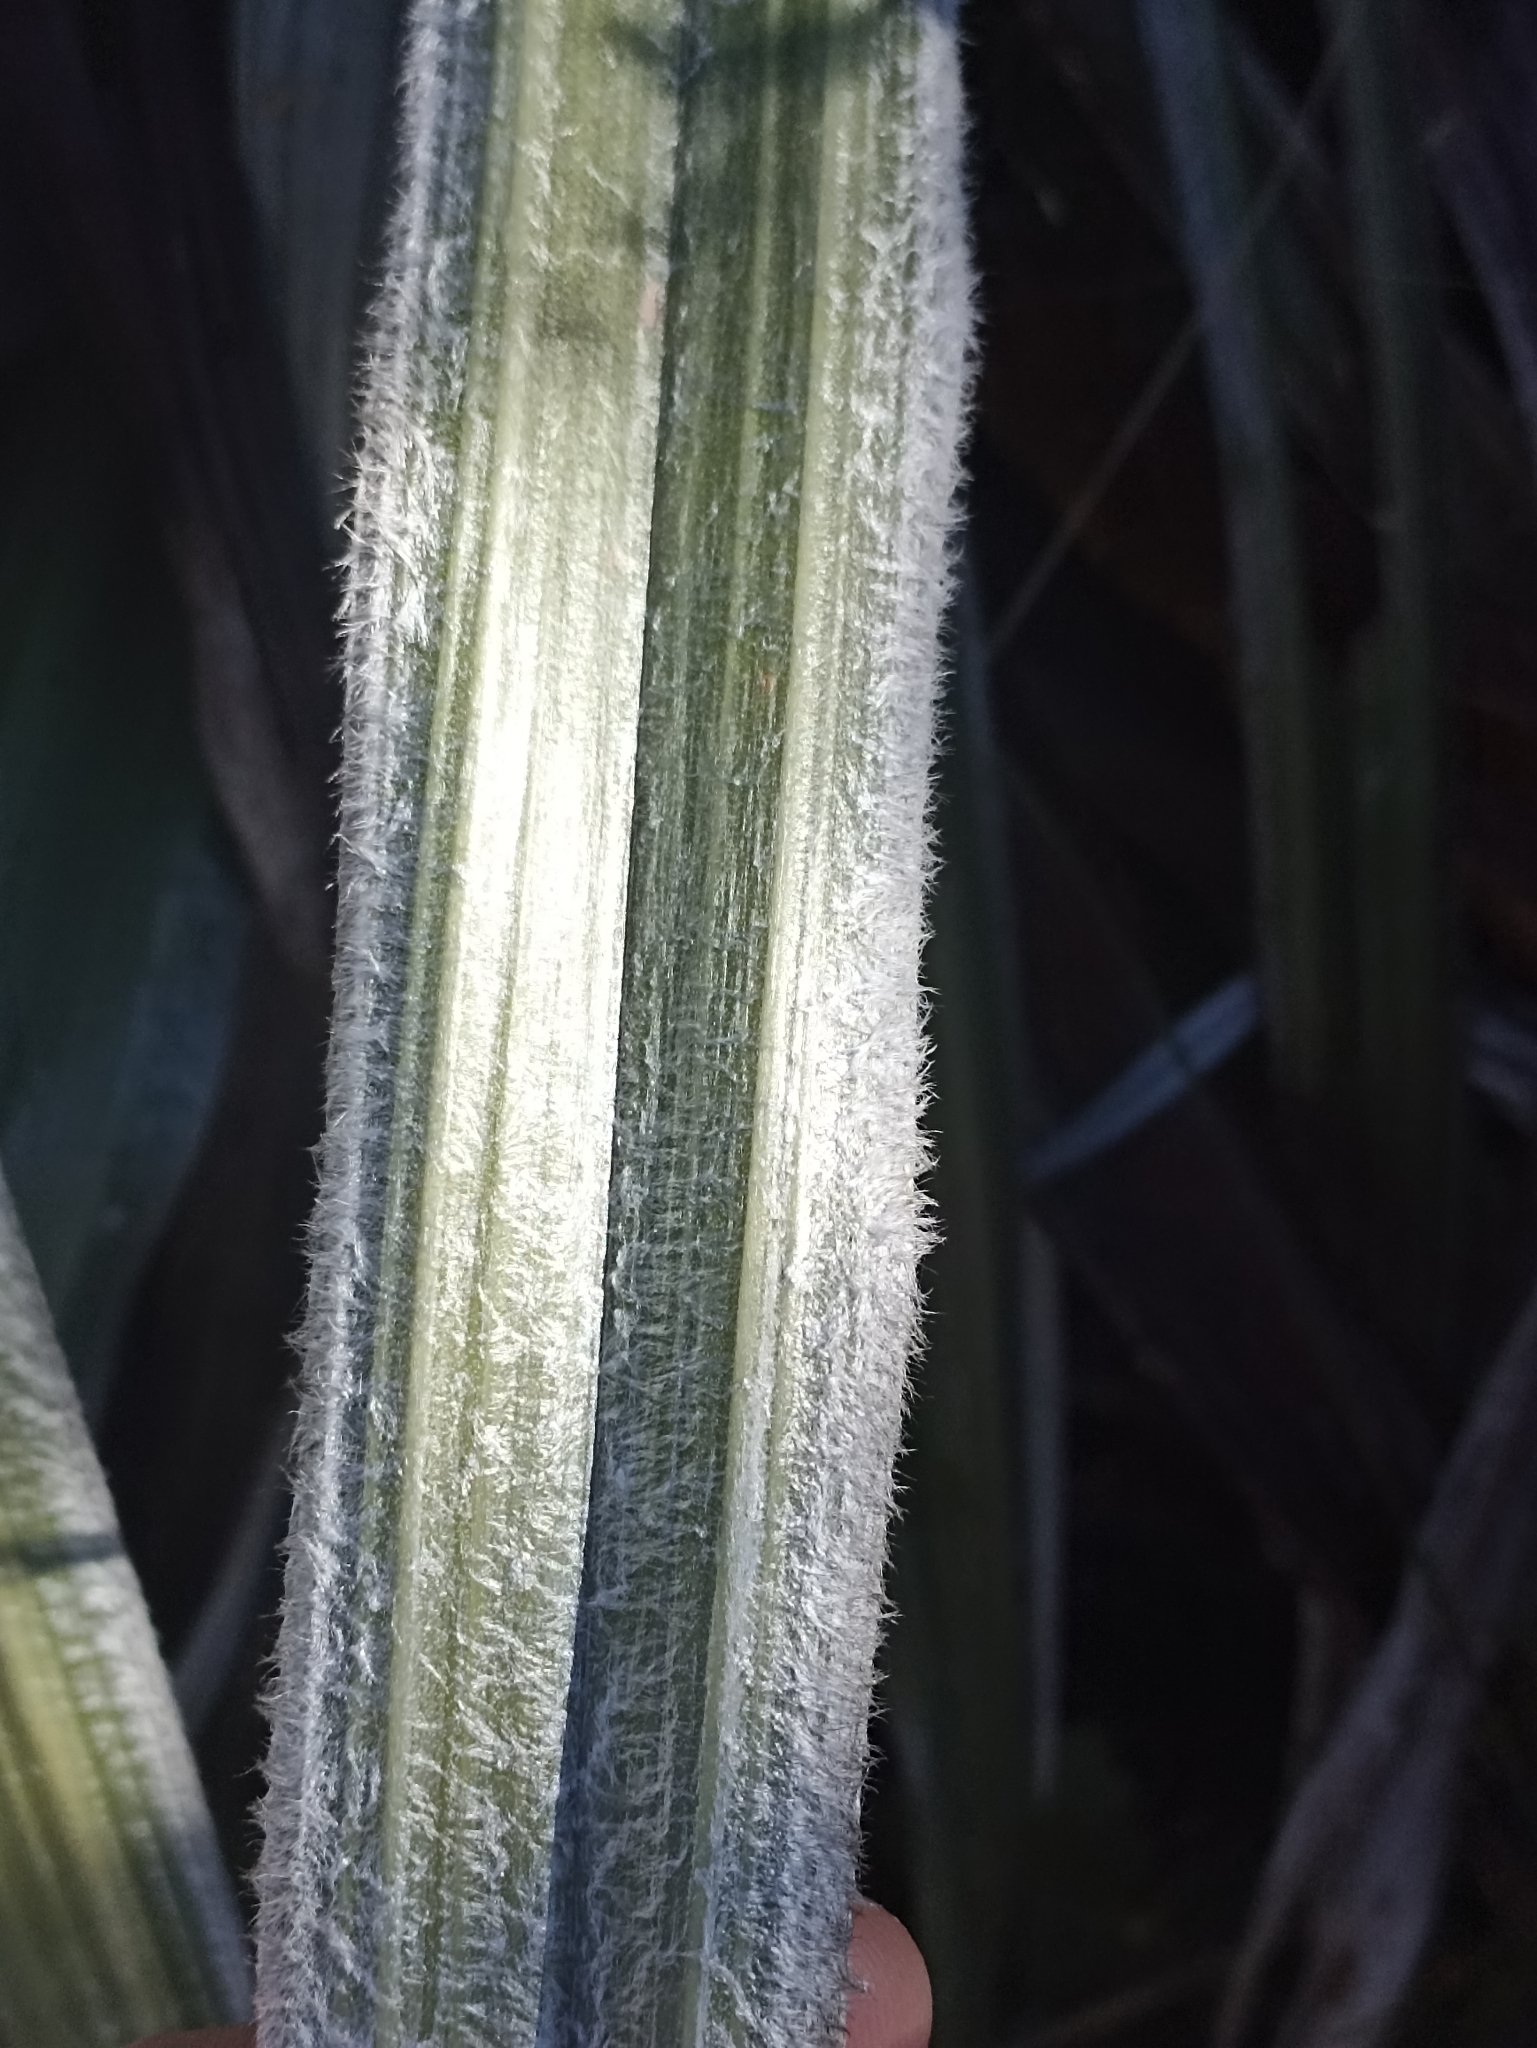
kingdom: Plantae
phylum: Tracheophyta
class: Liliopsida
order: Asparagales
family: Asteliaceae
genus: Astelia
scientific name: Astelia nervosa
